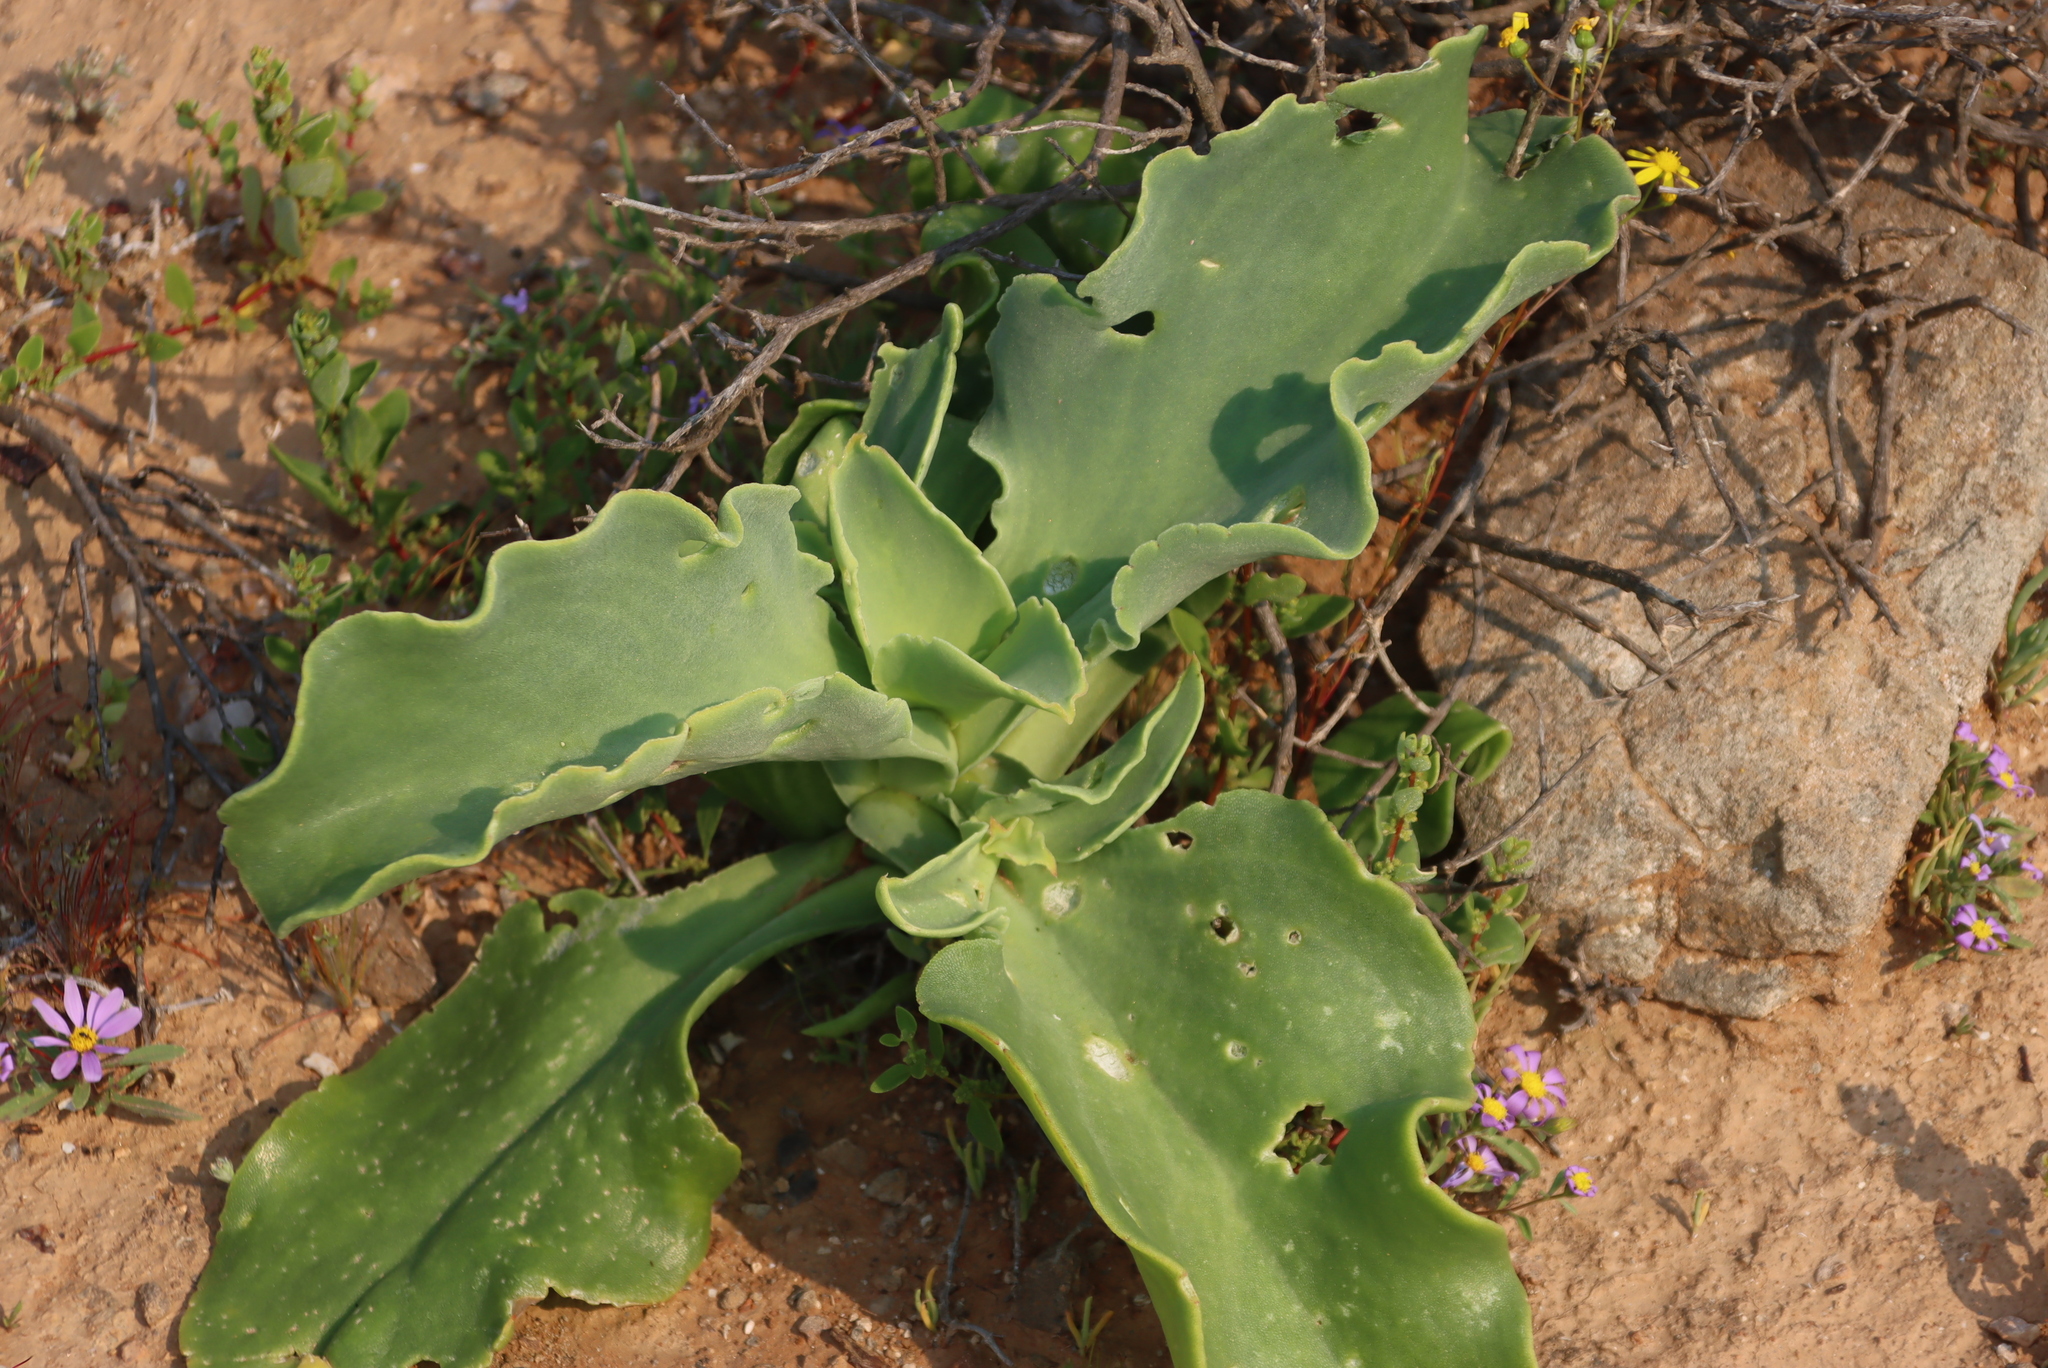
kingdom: Plantae
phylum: Tracheophyta
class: Magnoliopsida
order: Caryophyllales
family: Aizoaceae
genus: Mesembryanthemum
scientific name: Mesembryanthemum barklyi
